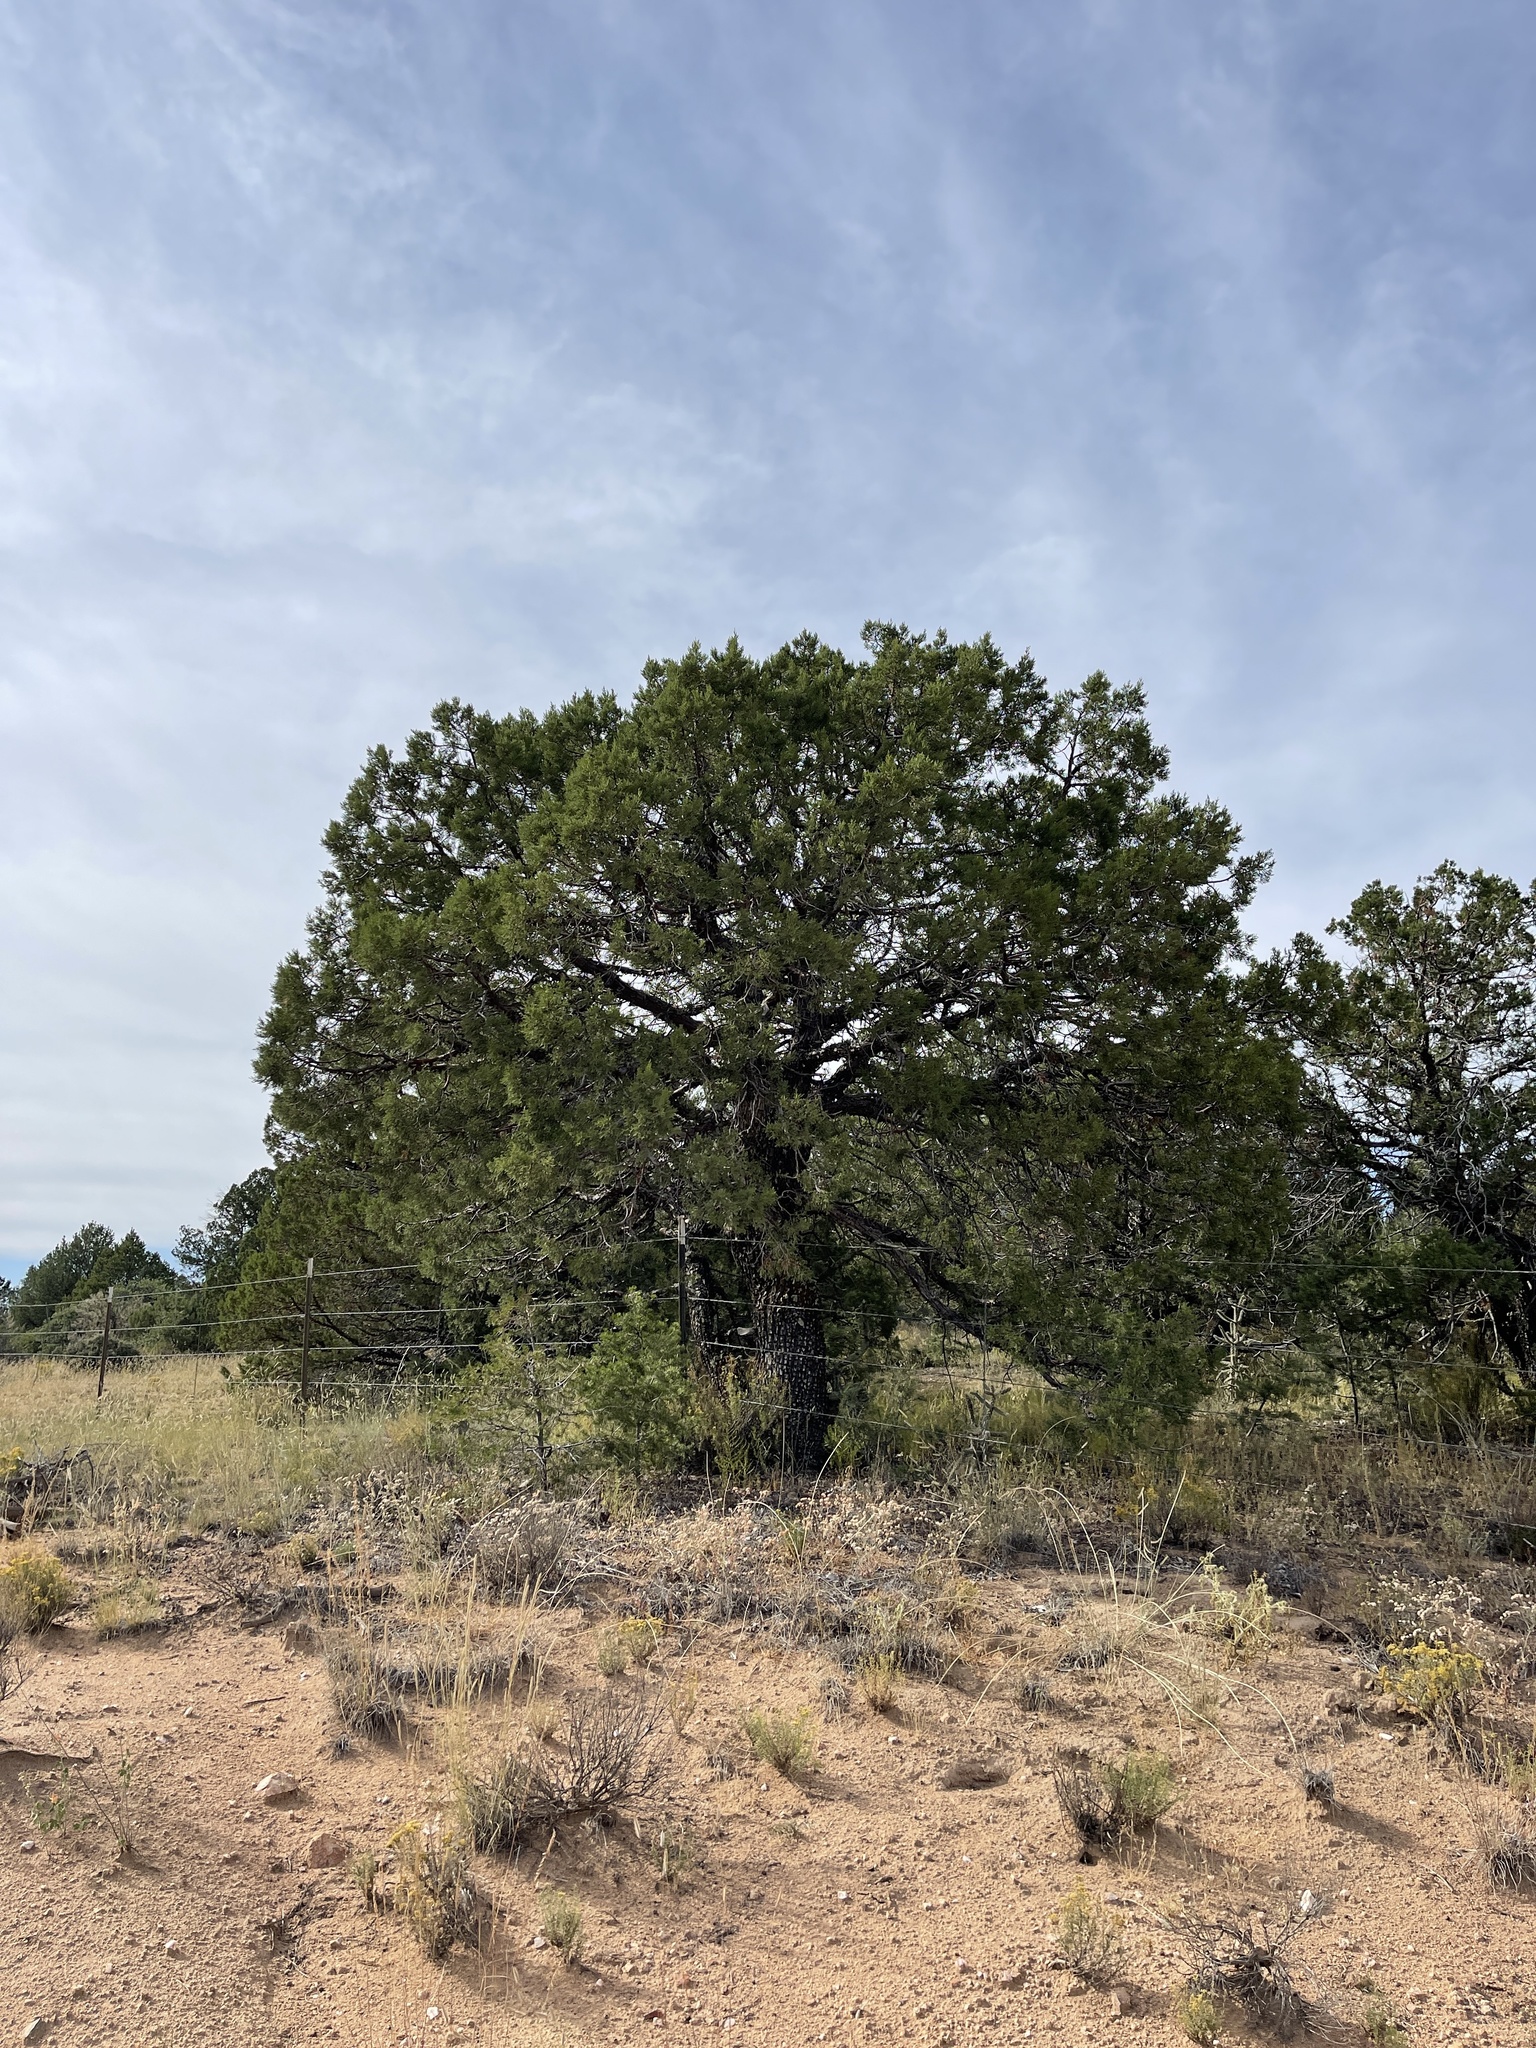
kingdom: Plantae
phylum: Tracheophyta
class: Pinopsida
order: Pinales
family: Cupressaceae
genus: Juniperus
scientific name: Juniperus deppeana
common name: Alligator juniper
